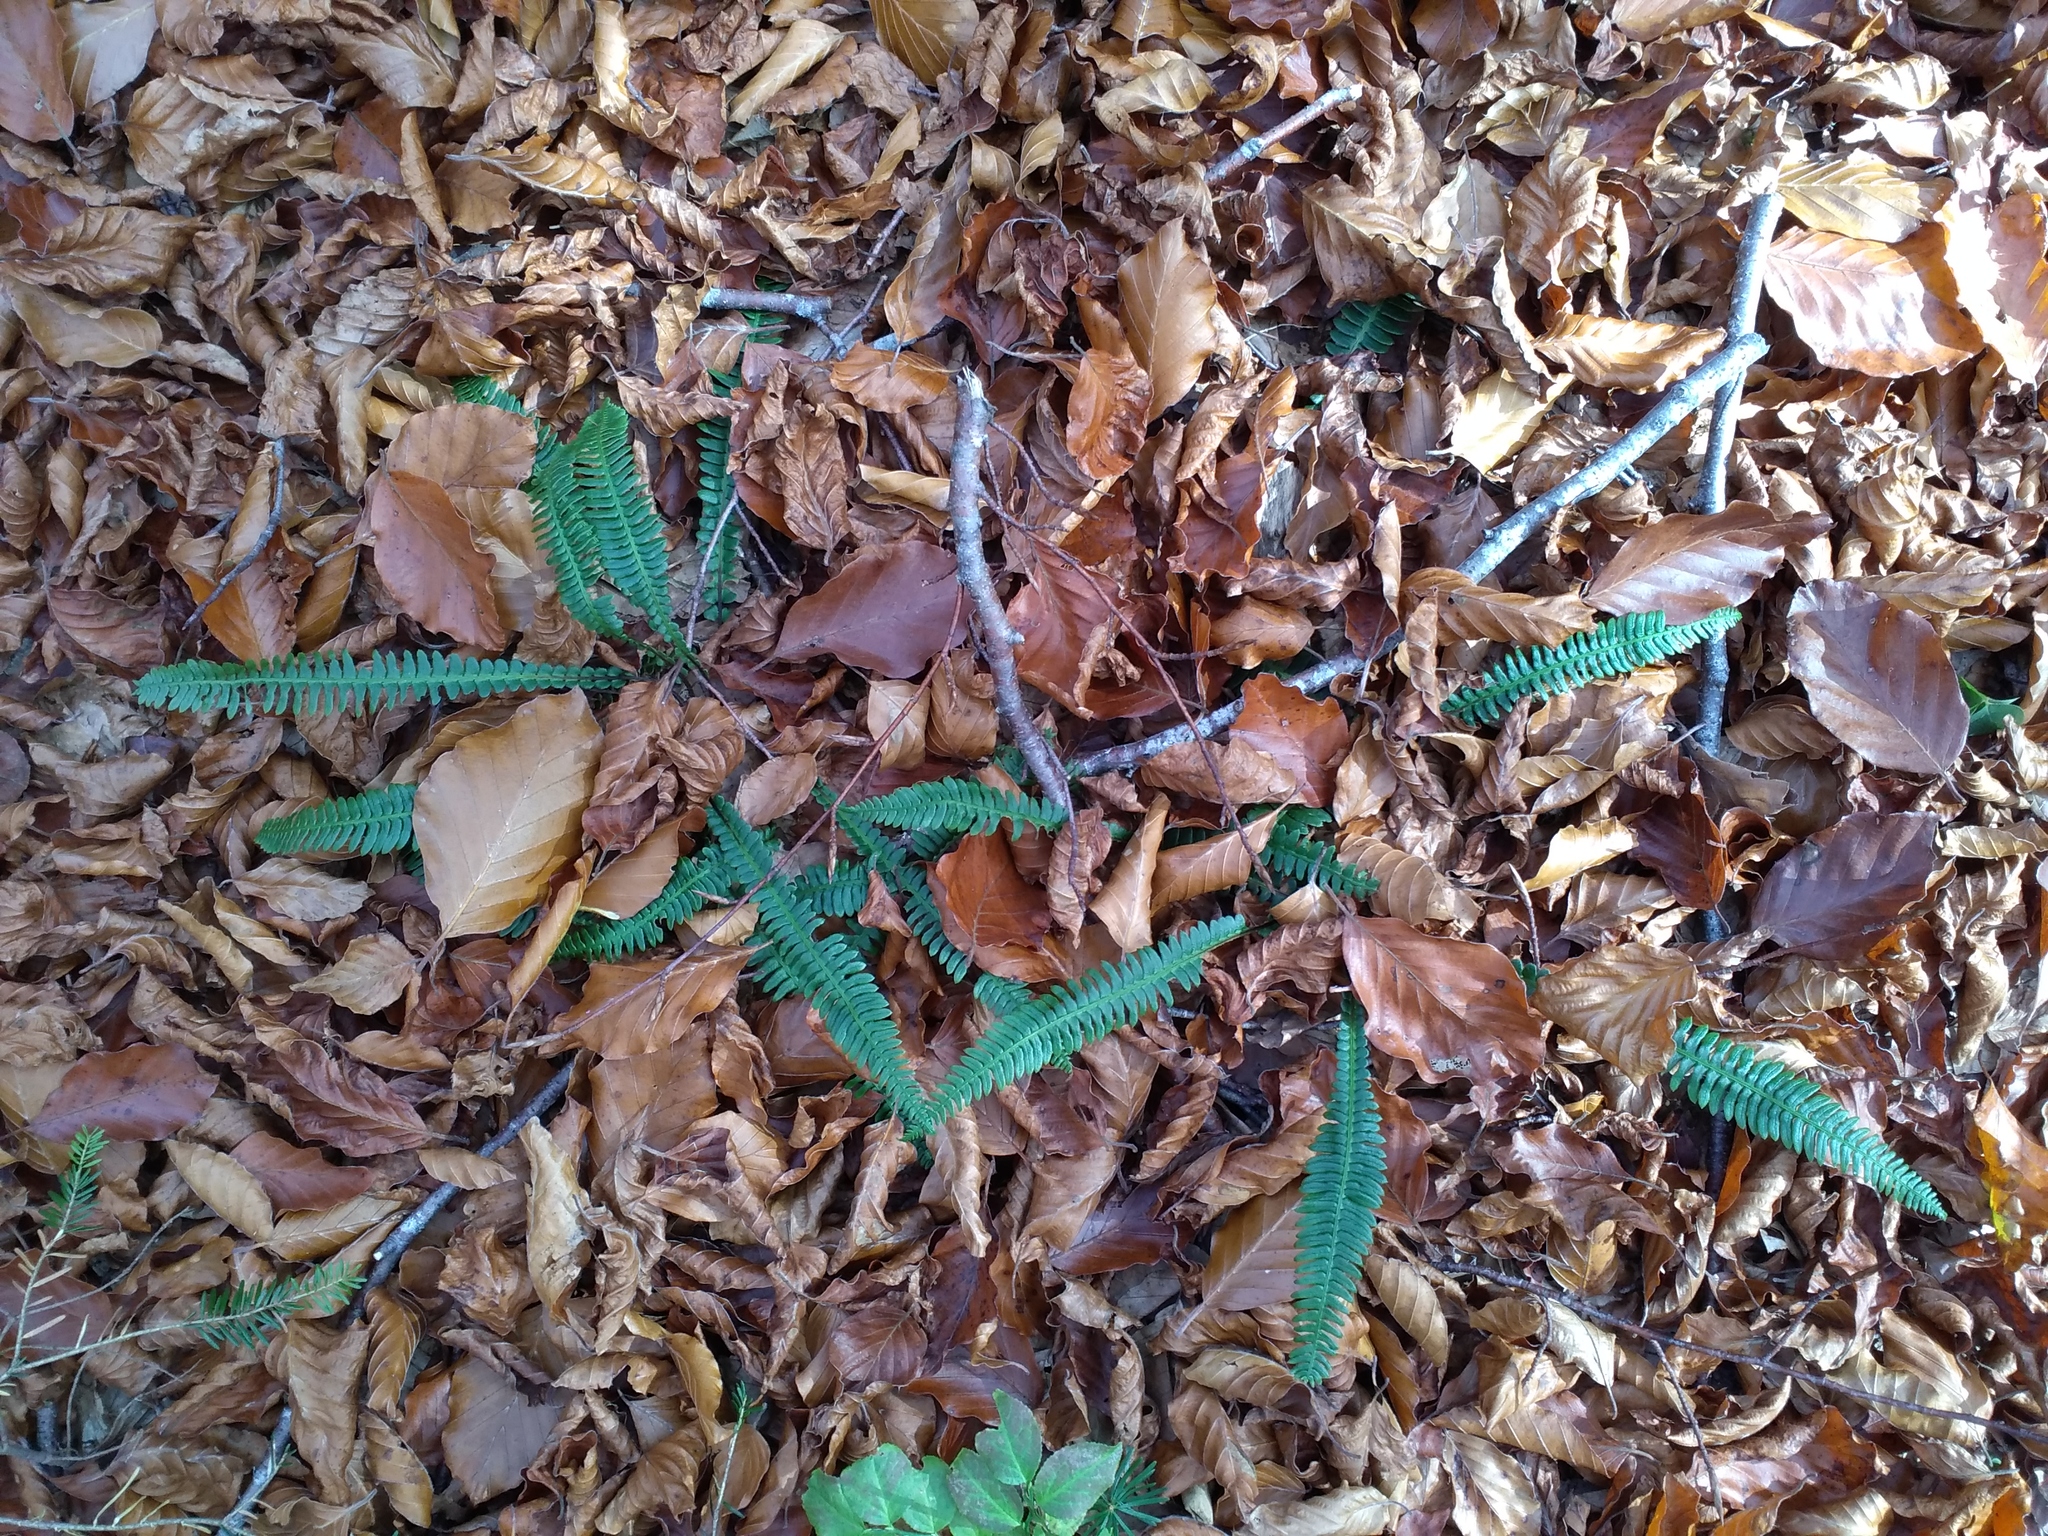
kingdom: Plantae
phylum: Tracheophyta
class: Polypodiopsida
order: Polypodiales
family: Blechnaceae
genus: Struthiopteris
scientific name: Struthiopteris spicant
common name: Deer fern
